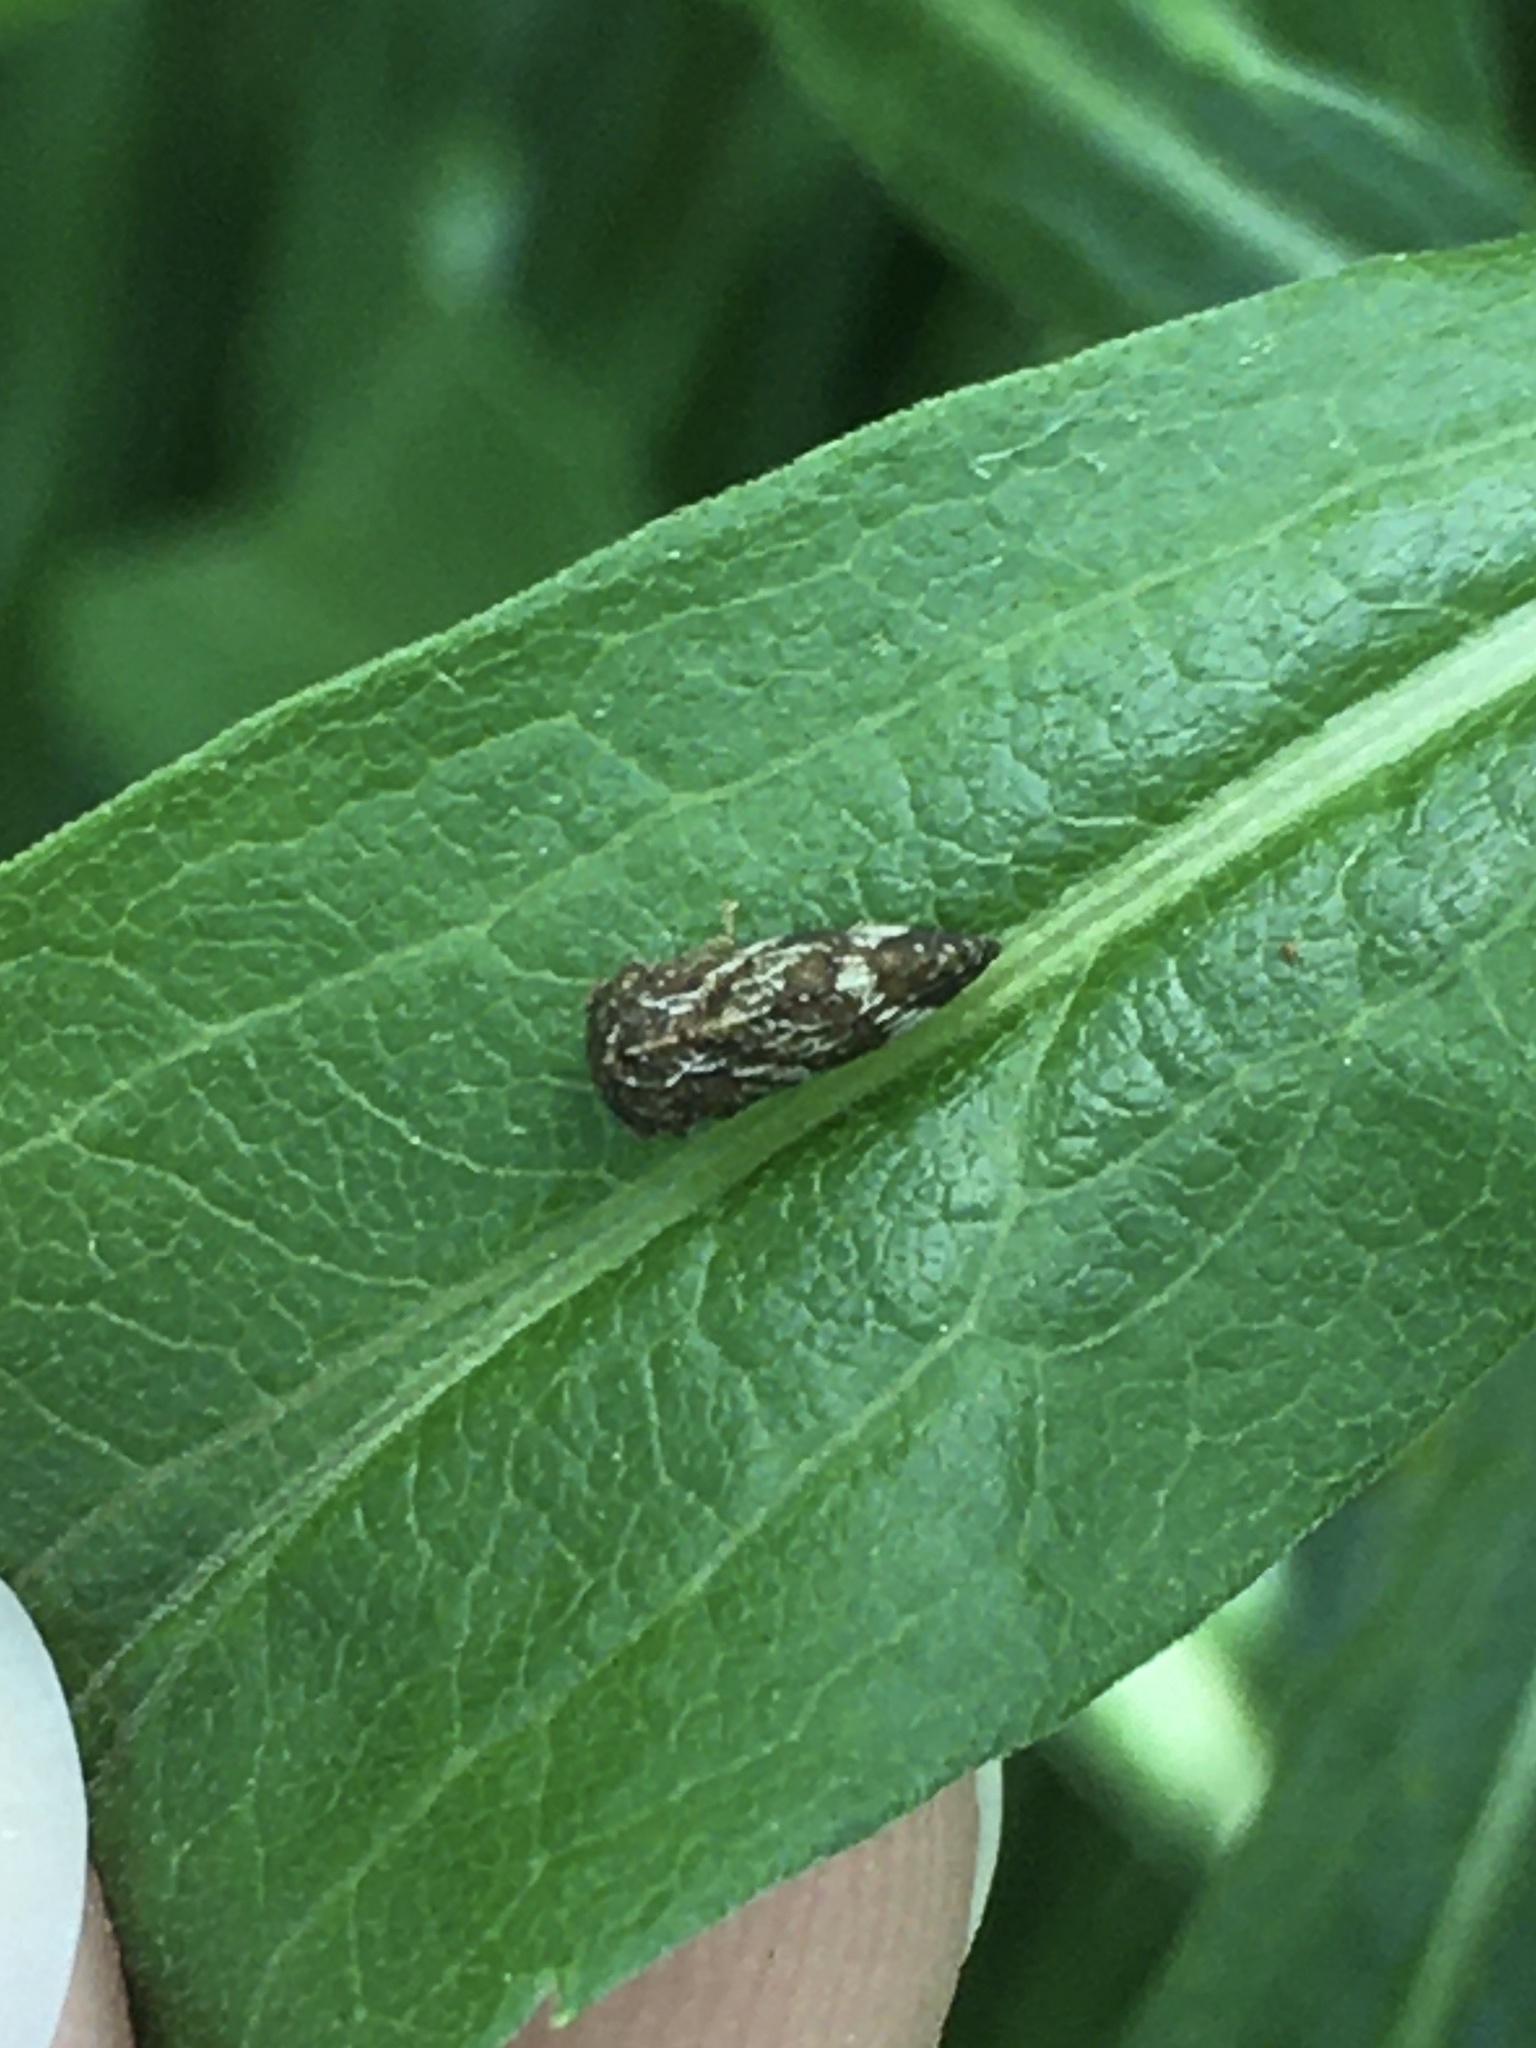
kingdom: Animalia
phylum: Arthropoda
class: Insecta
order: Hemiptera
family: Membracidae
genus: Publilia
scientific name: Publilia concava
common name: Aster treehopper
